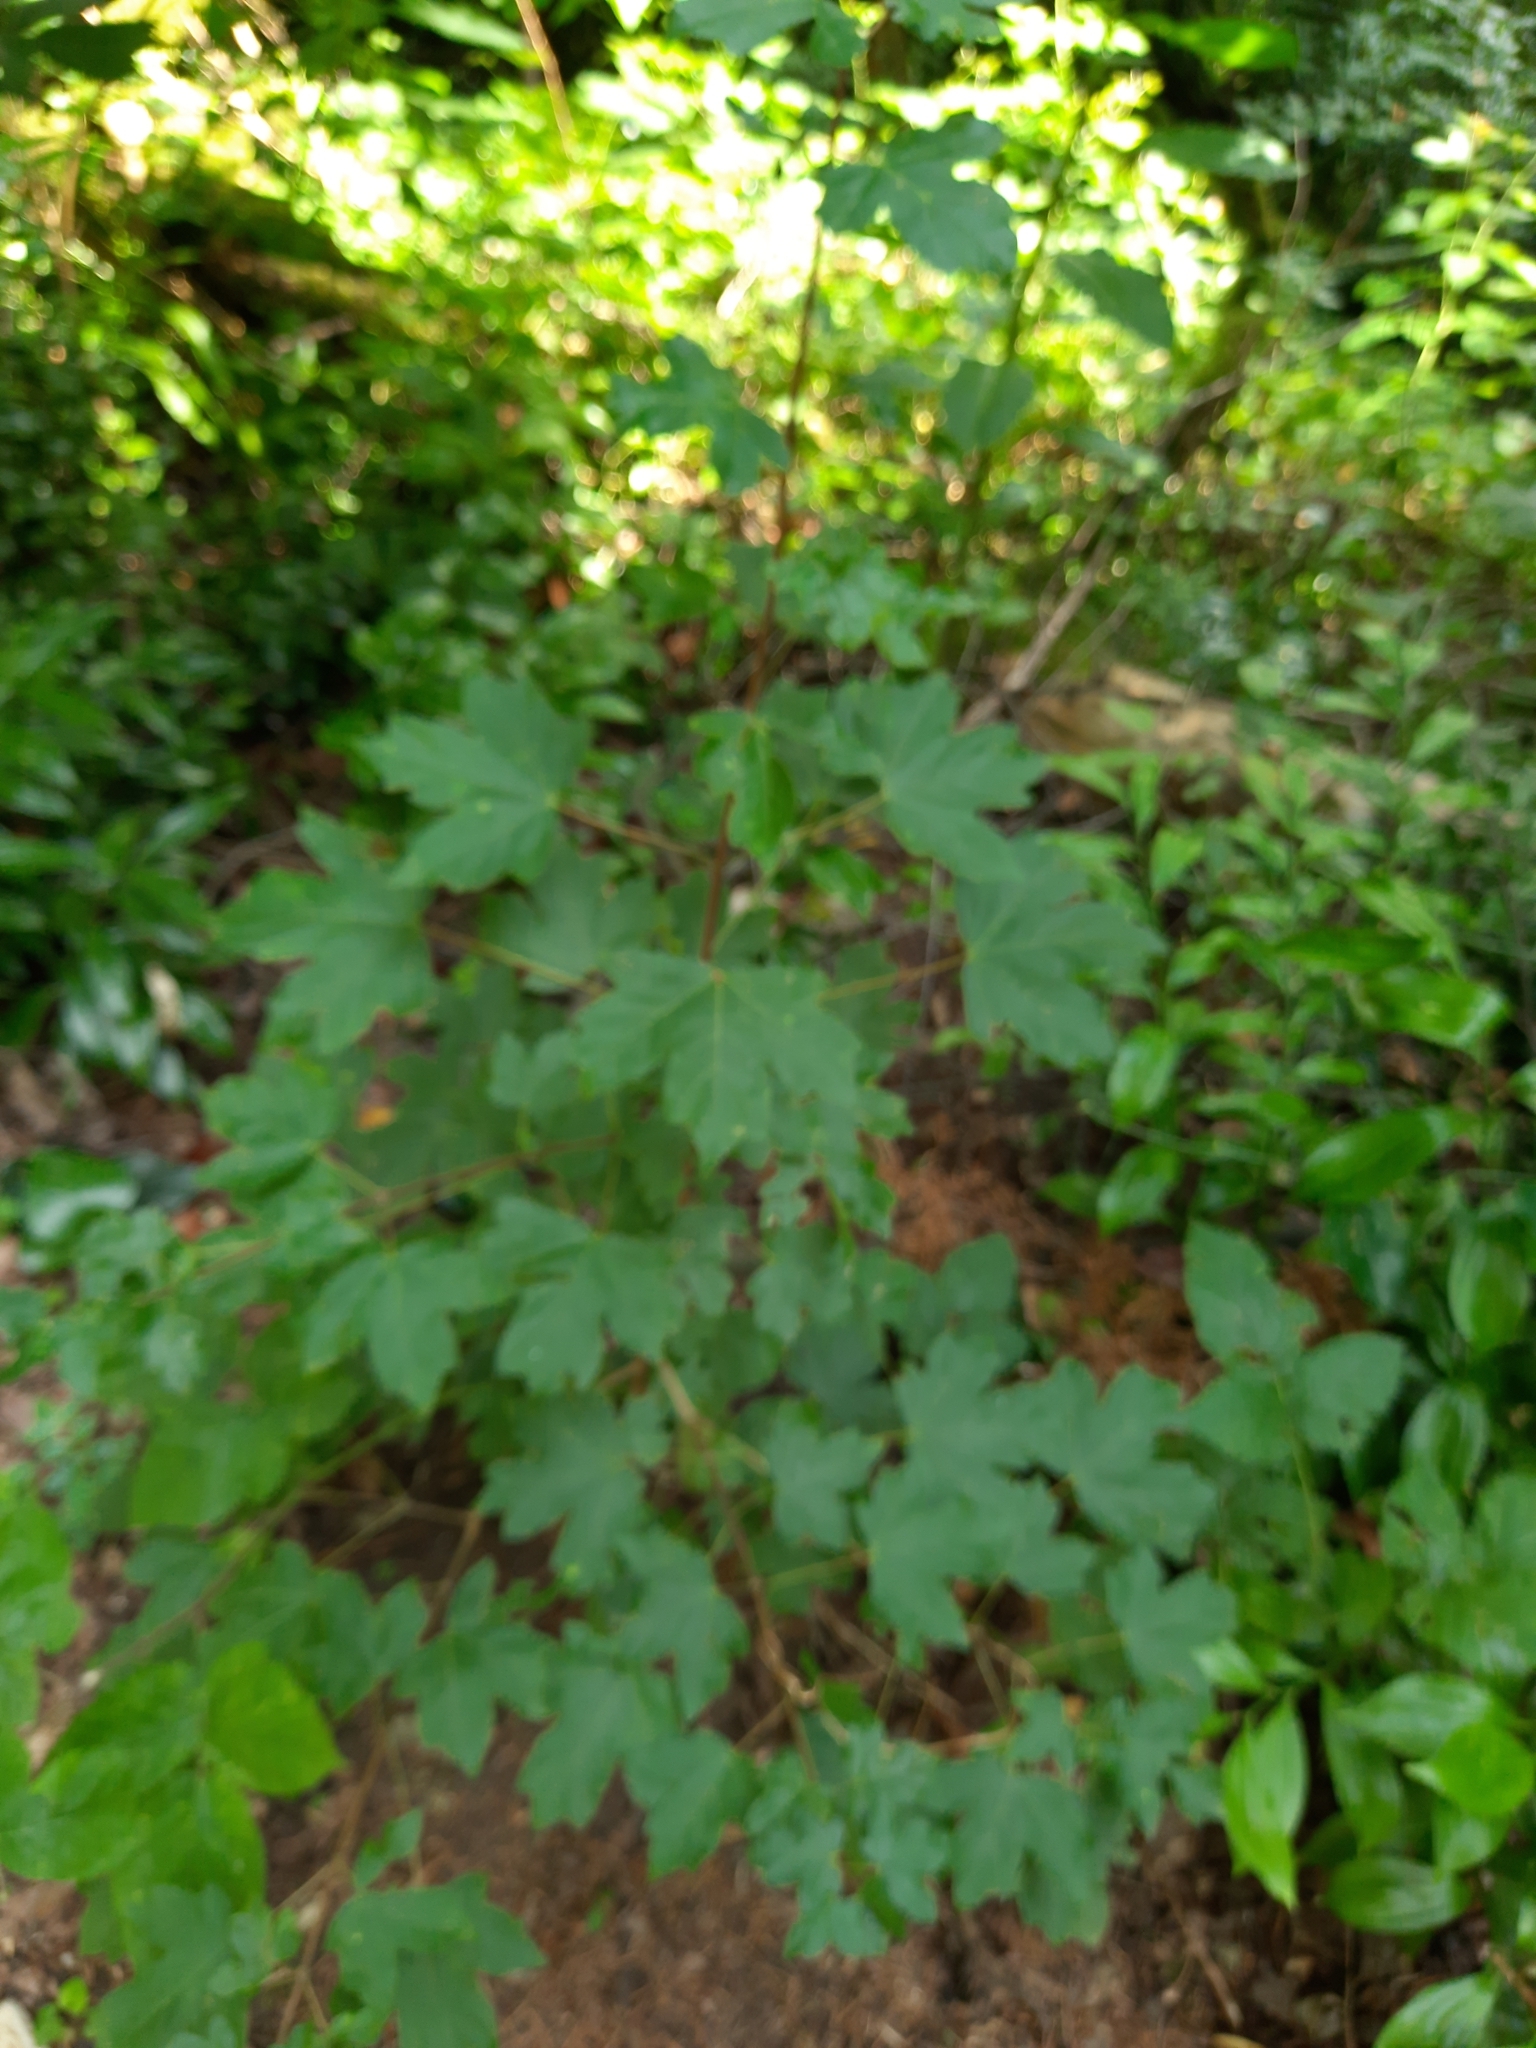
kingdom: Plantae
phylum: Tracheophyta
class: Magnoliopsida
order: Sapindales
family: Sapindaceae
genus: Acer
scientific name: Acer pseudoplatanus
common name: Sycamore
